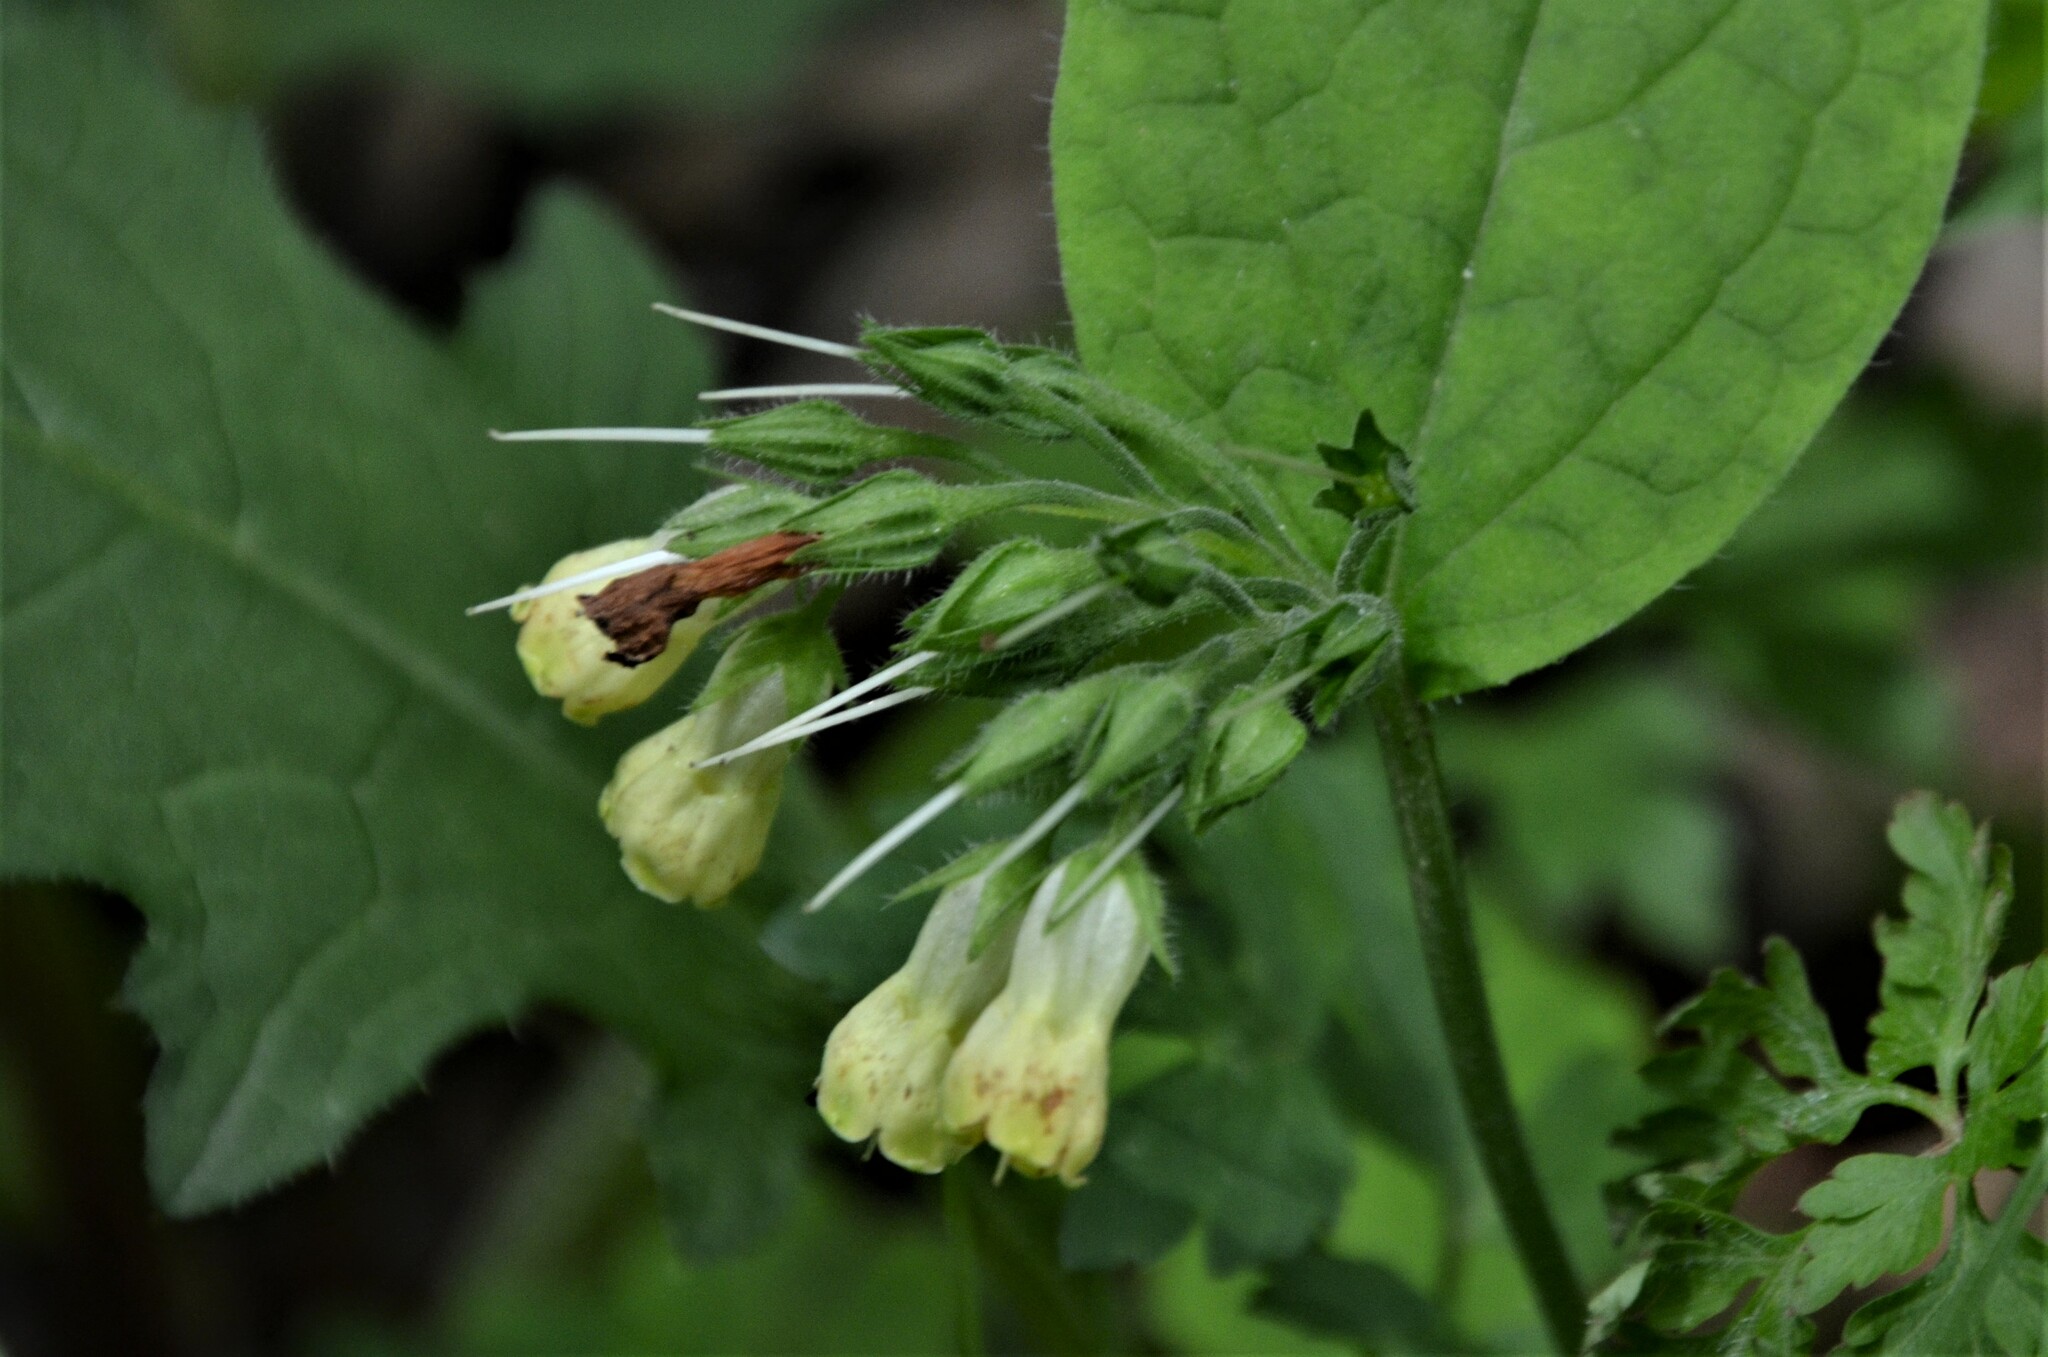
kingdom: Plantae
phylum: Tracheophyta
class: Magnoliopsida
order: Boraginales
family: Boraginaceae
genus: Symphytum
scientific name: Symphytum tuberosum
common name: Tuberous comfrey
